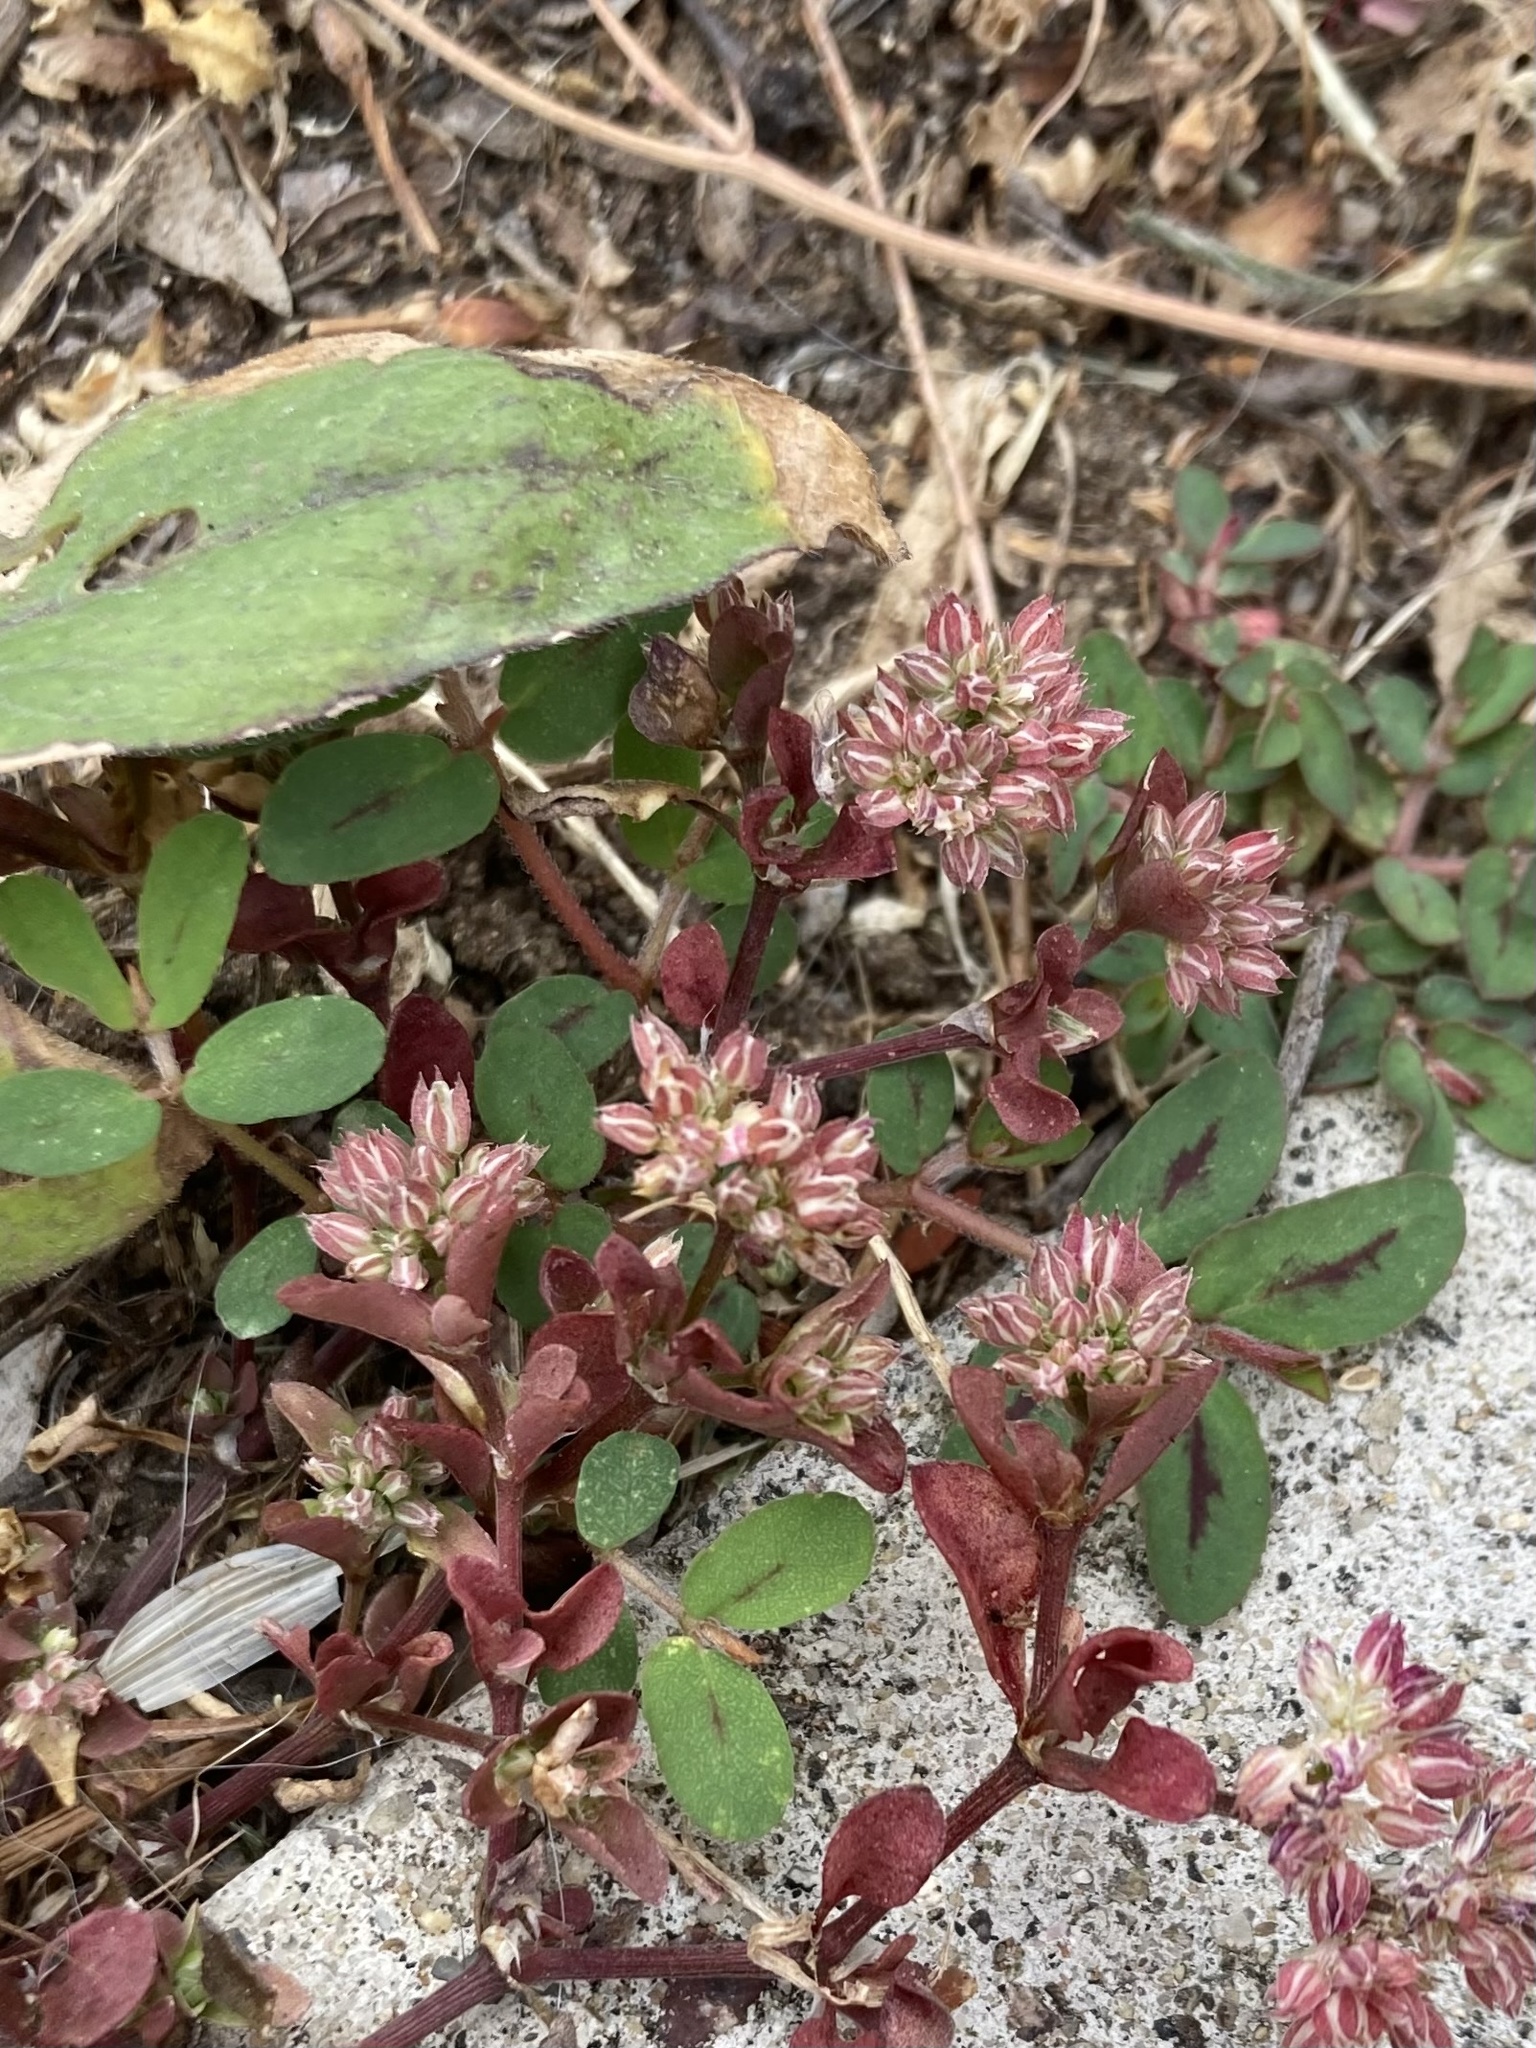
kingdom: Plantae
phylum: Tracheophyta
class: Magnoliopsida
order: Caryophyllales
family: Caryophyllaceae
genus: Polycarpon
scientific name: Polycarpon tetraphyllum
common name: Four-leaved all-seed
